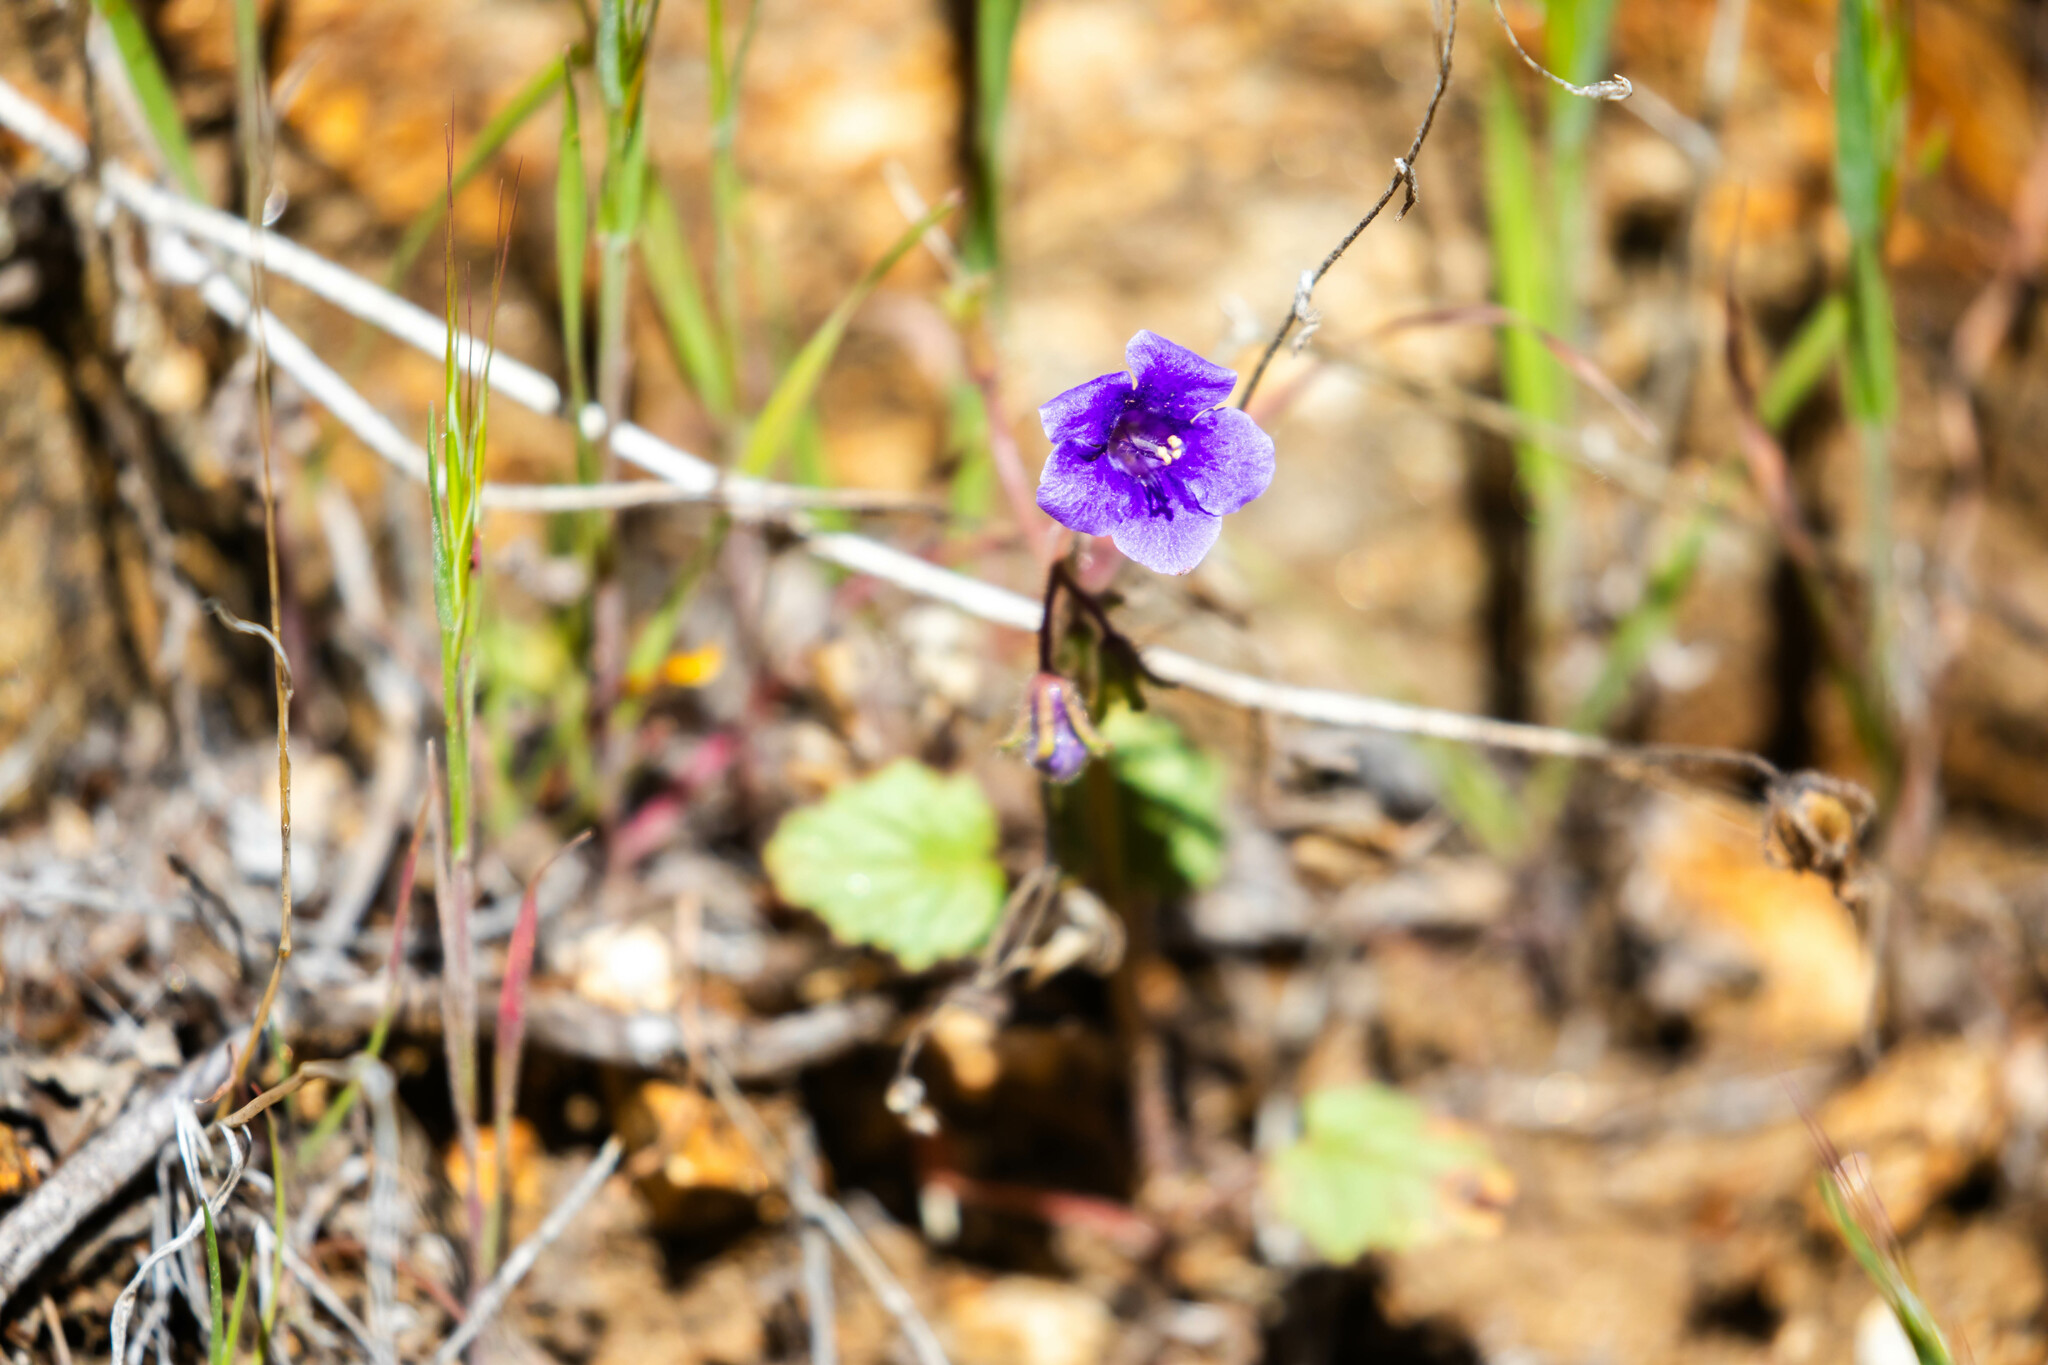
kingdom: Plantae
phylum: Tracheophyta
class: Magnoliopsida
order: Boraginales
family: Hydrophyllaceae
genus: Phacelia
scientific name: Phacelia minor
